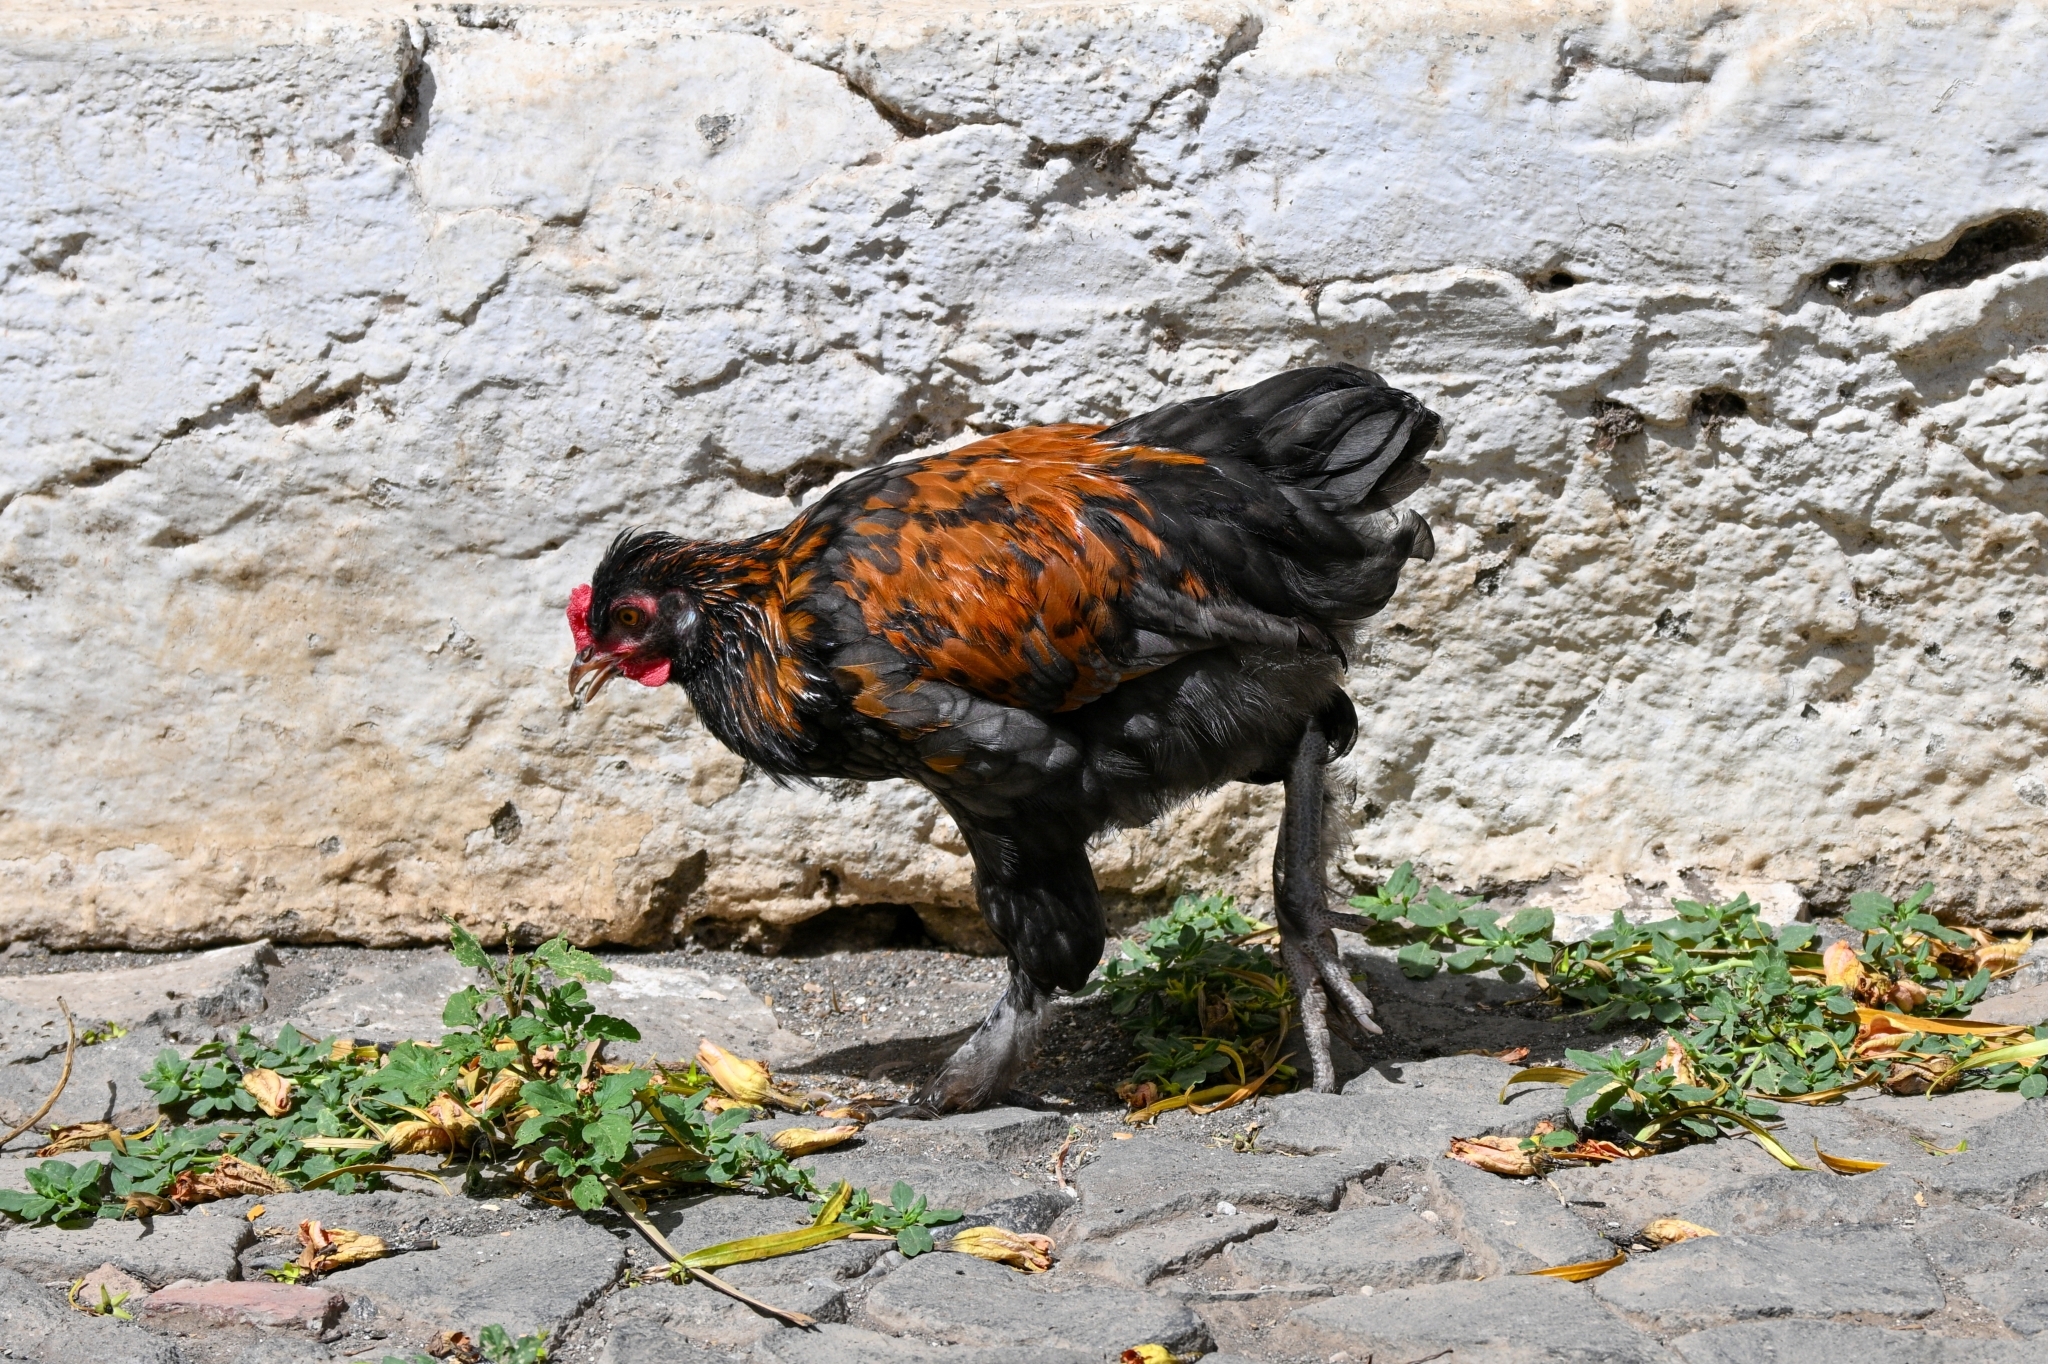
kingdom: Animalia
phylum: Chordata
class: Aves
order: Galliformes
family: Phasianidae
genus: Gallus
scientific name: Gallus gallus
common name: Red junglefowl
